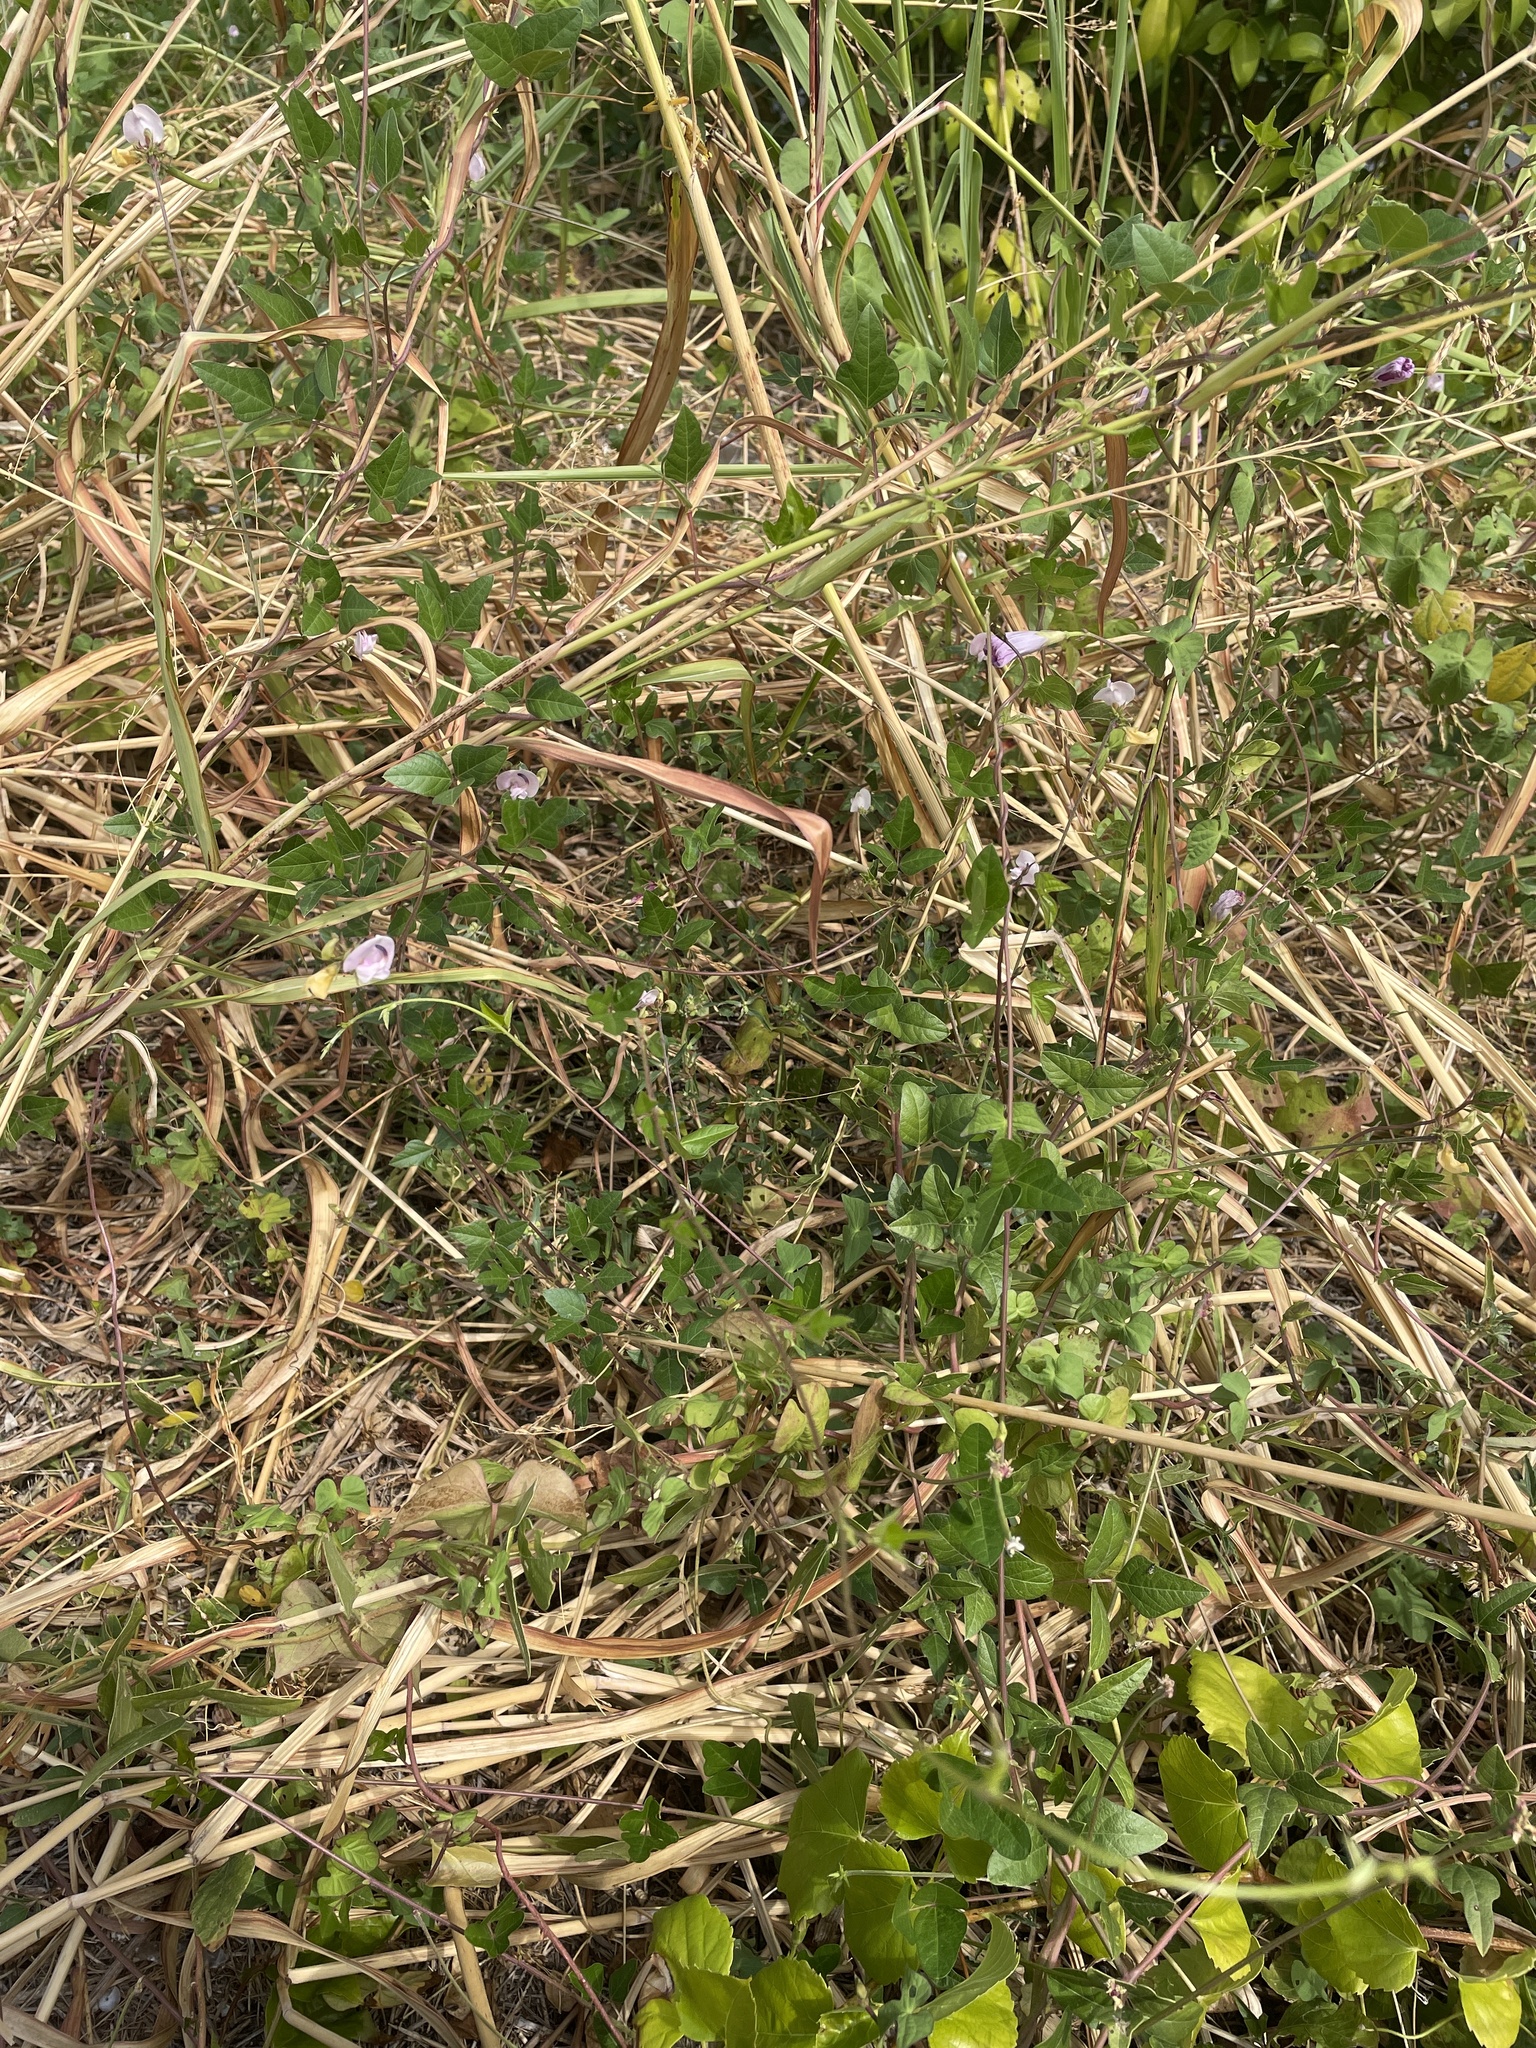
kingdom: Plantae
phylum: Tracheophyta
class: Magnoliopsida
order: Fabales
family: Fabaceae
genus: Strophostyles
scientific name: Strophostyles helvola
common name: Trailing wild bean
